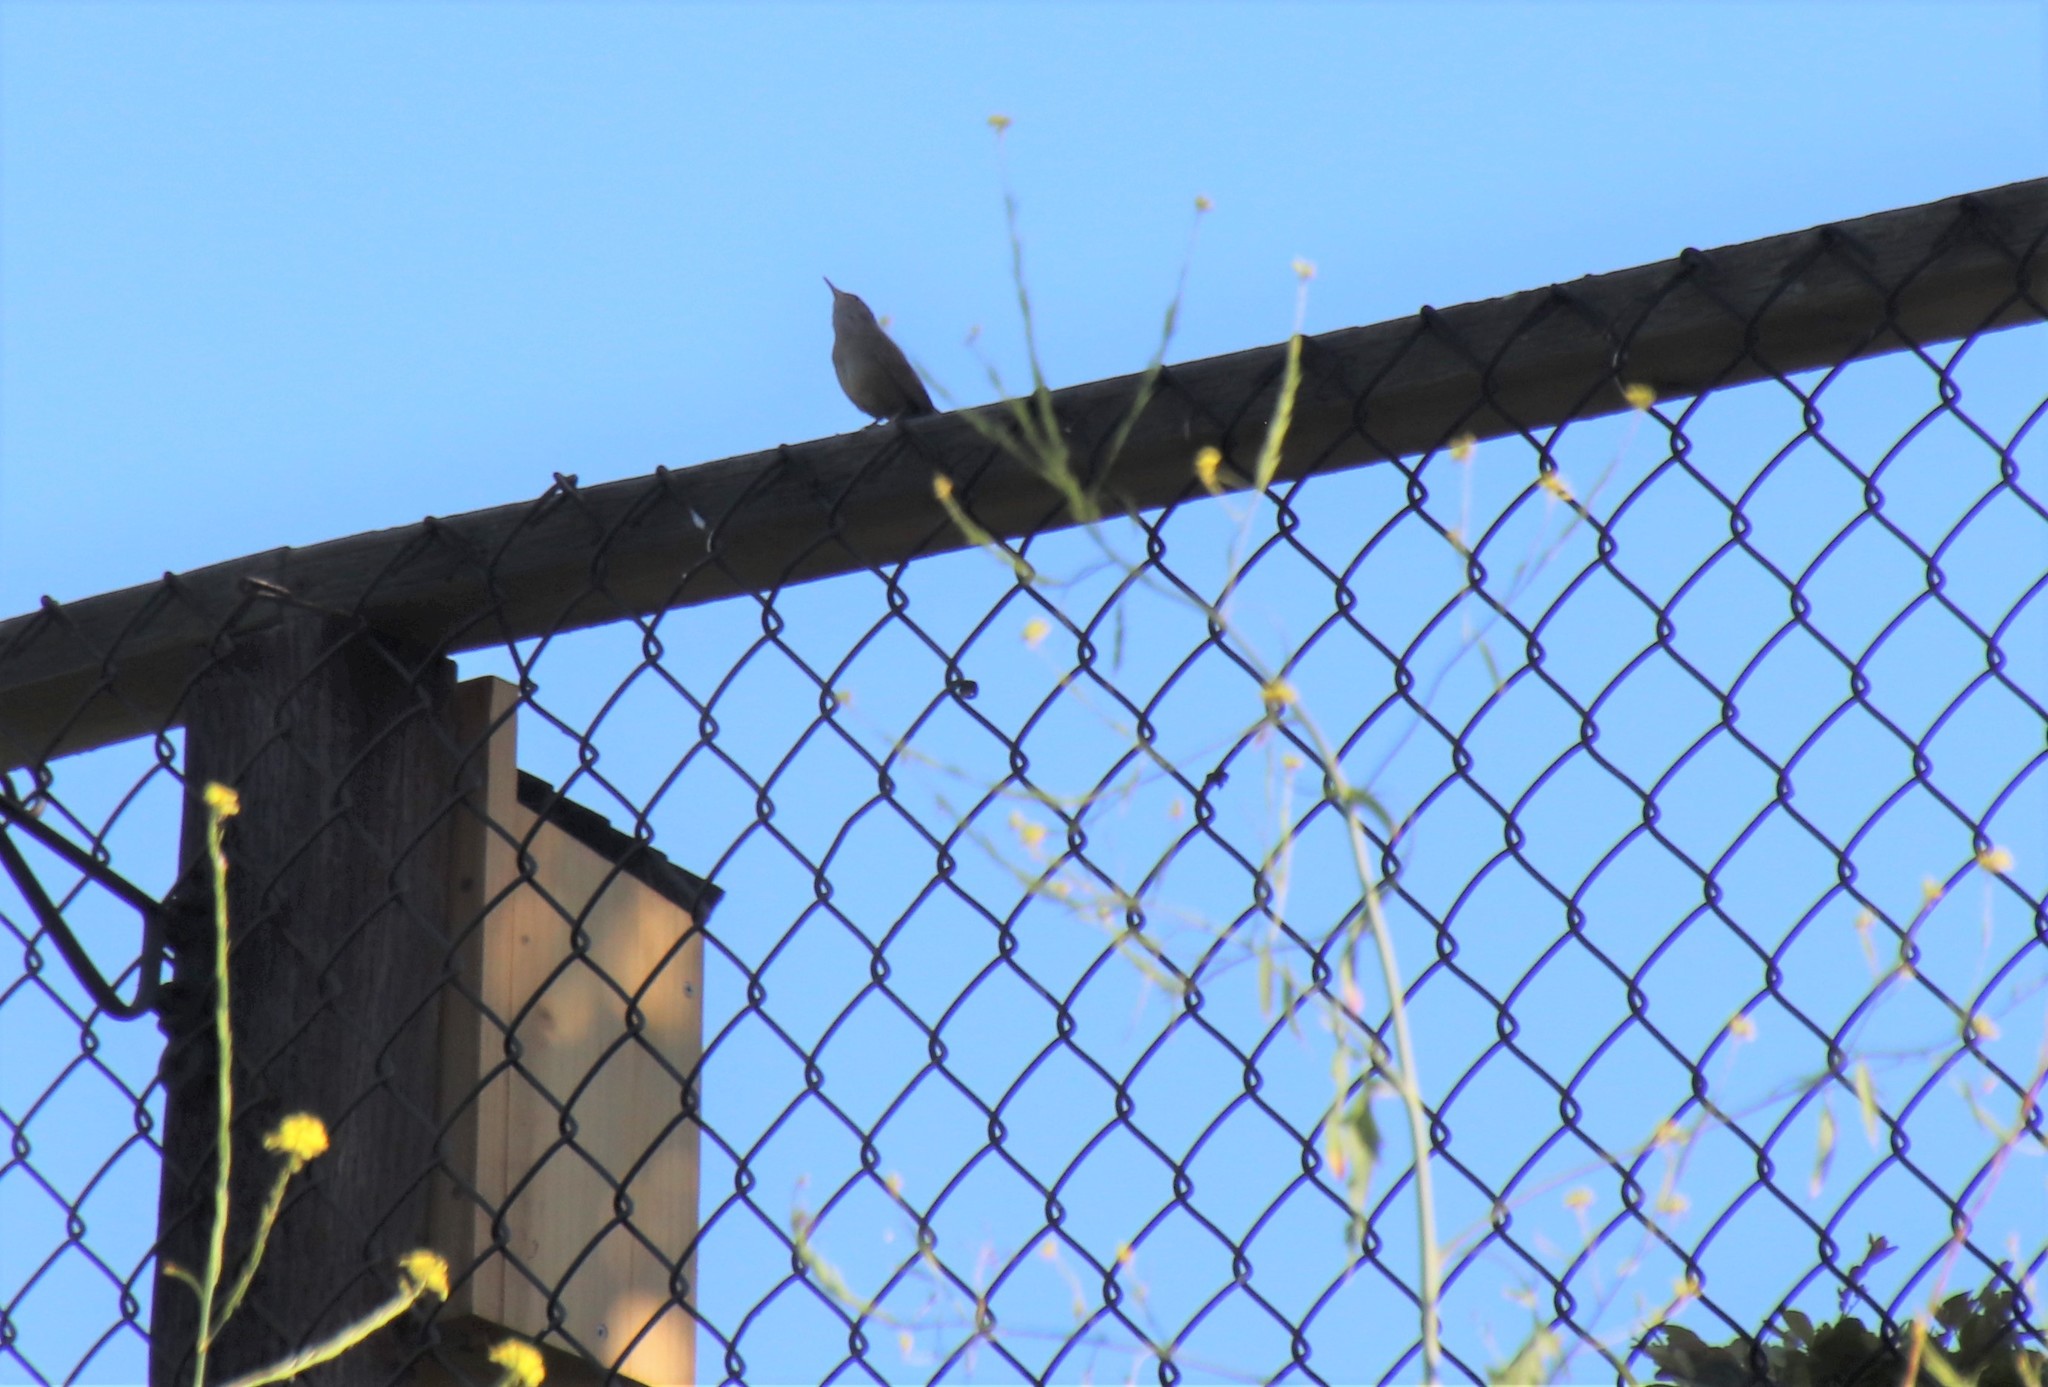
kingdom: Animalia
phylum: Chordata
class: Aves
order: Passeriformes
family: Troglodytidae
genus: Troglodytes
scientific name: Troglodytes aedon
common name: House wren
